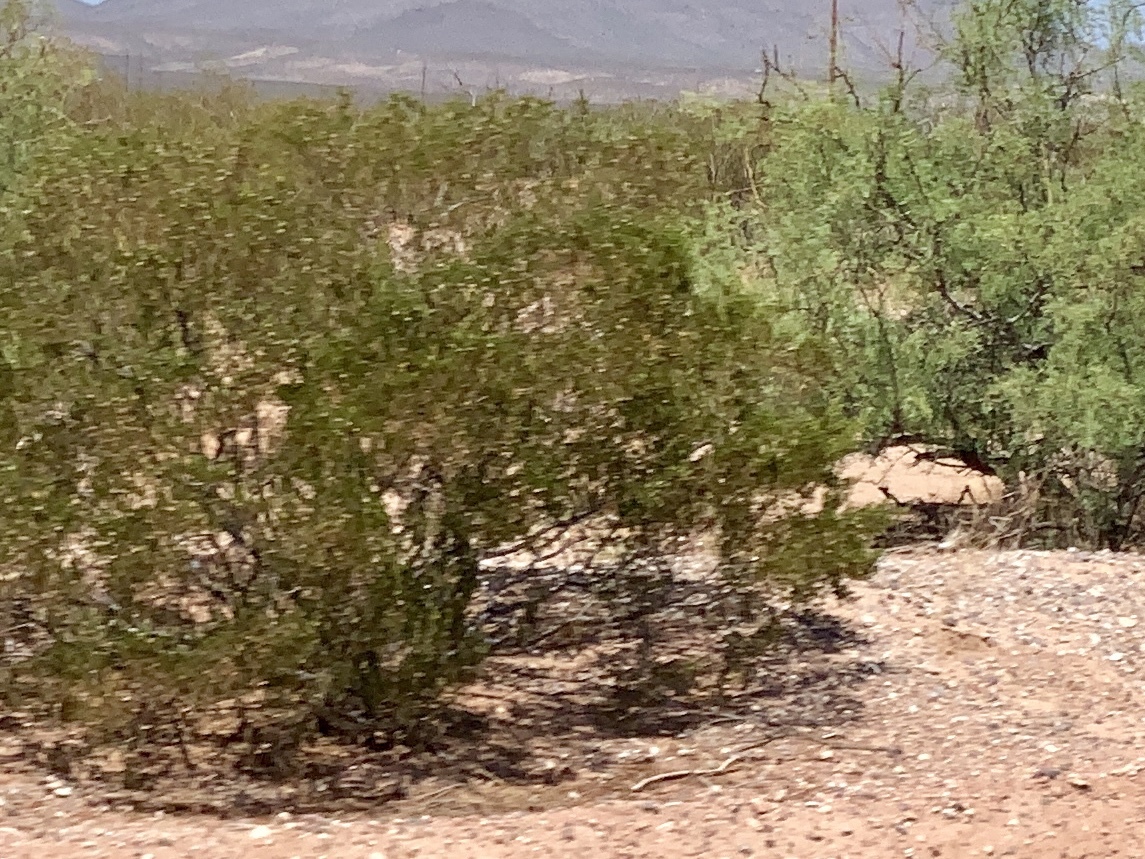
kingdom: Plantae
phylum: Tracheophyta
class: Magnoliopsida
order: Zygophyllales
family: Zygophyllaceae
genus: Larrea
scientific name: Larrea tridentata
